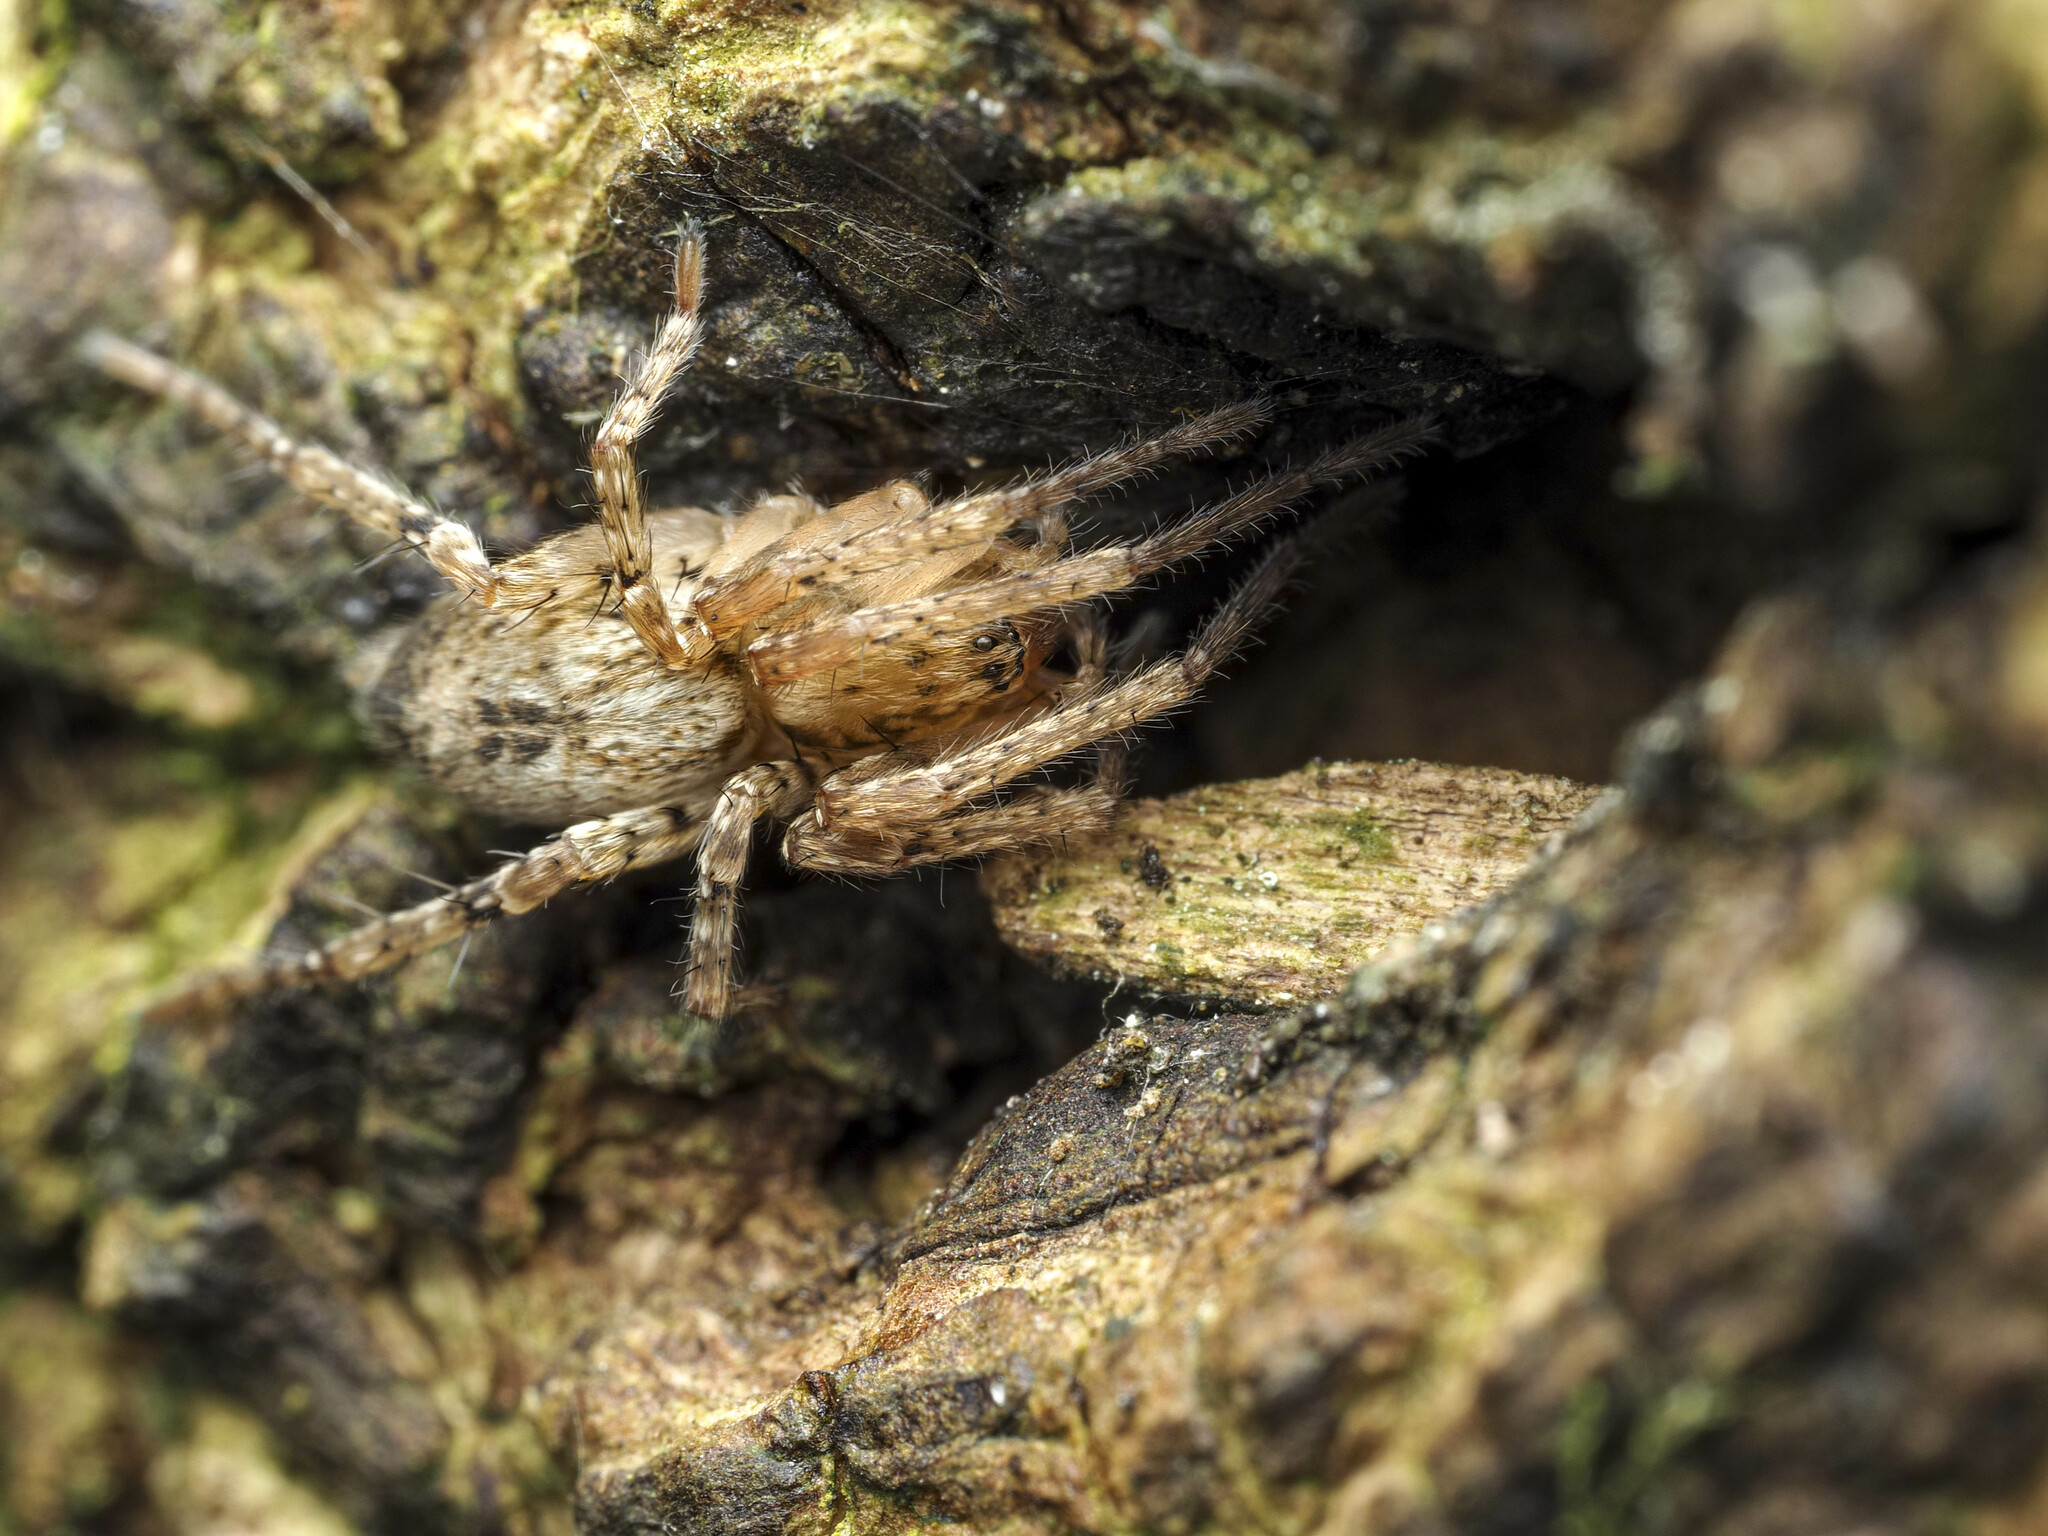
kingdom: Animalia
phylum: Arthropoda
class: Arachnida
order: Araneae
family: Anyphaenidae
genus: Anyphaena
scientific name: Anyphaena accentuata
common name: Buzzing spider
